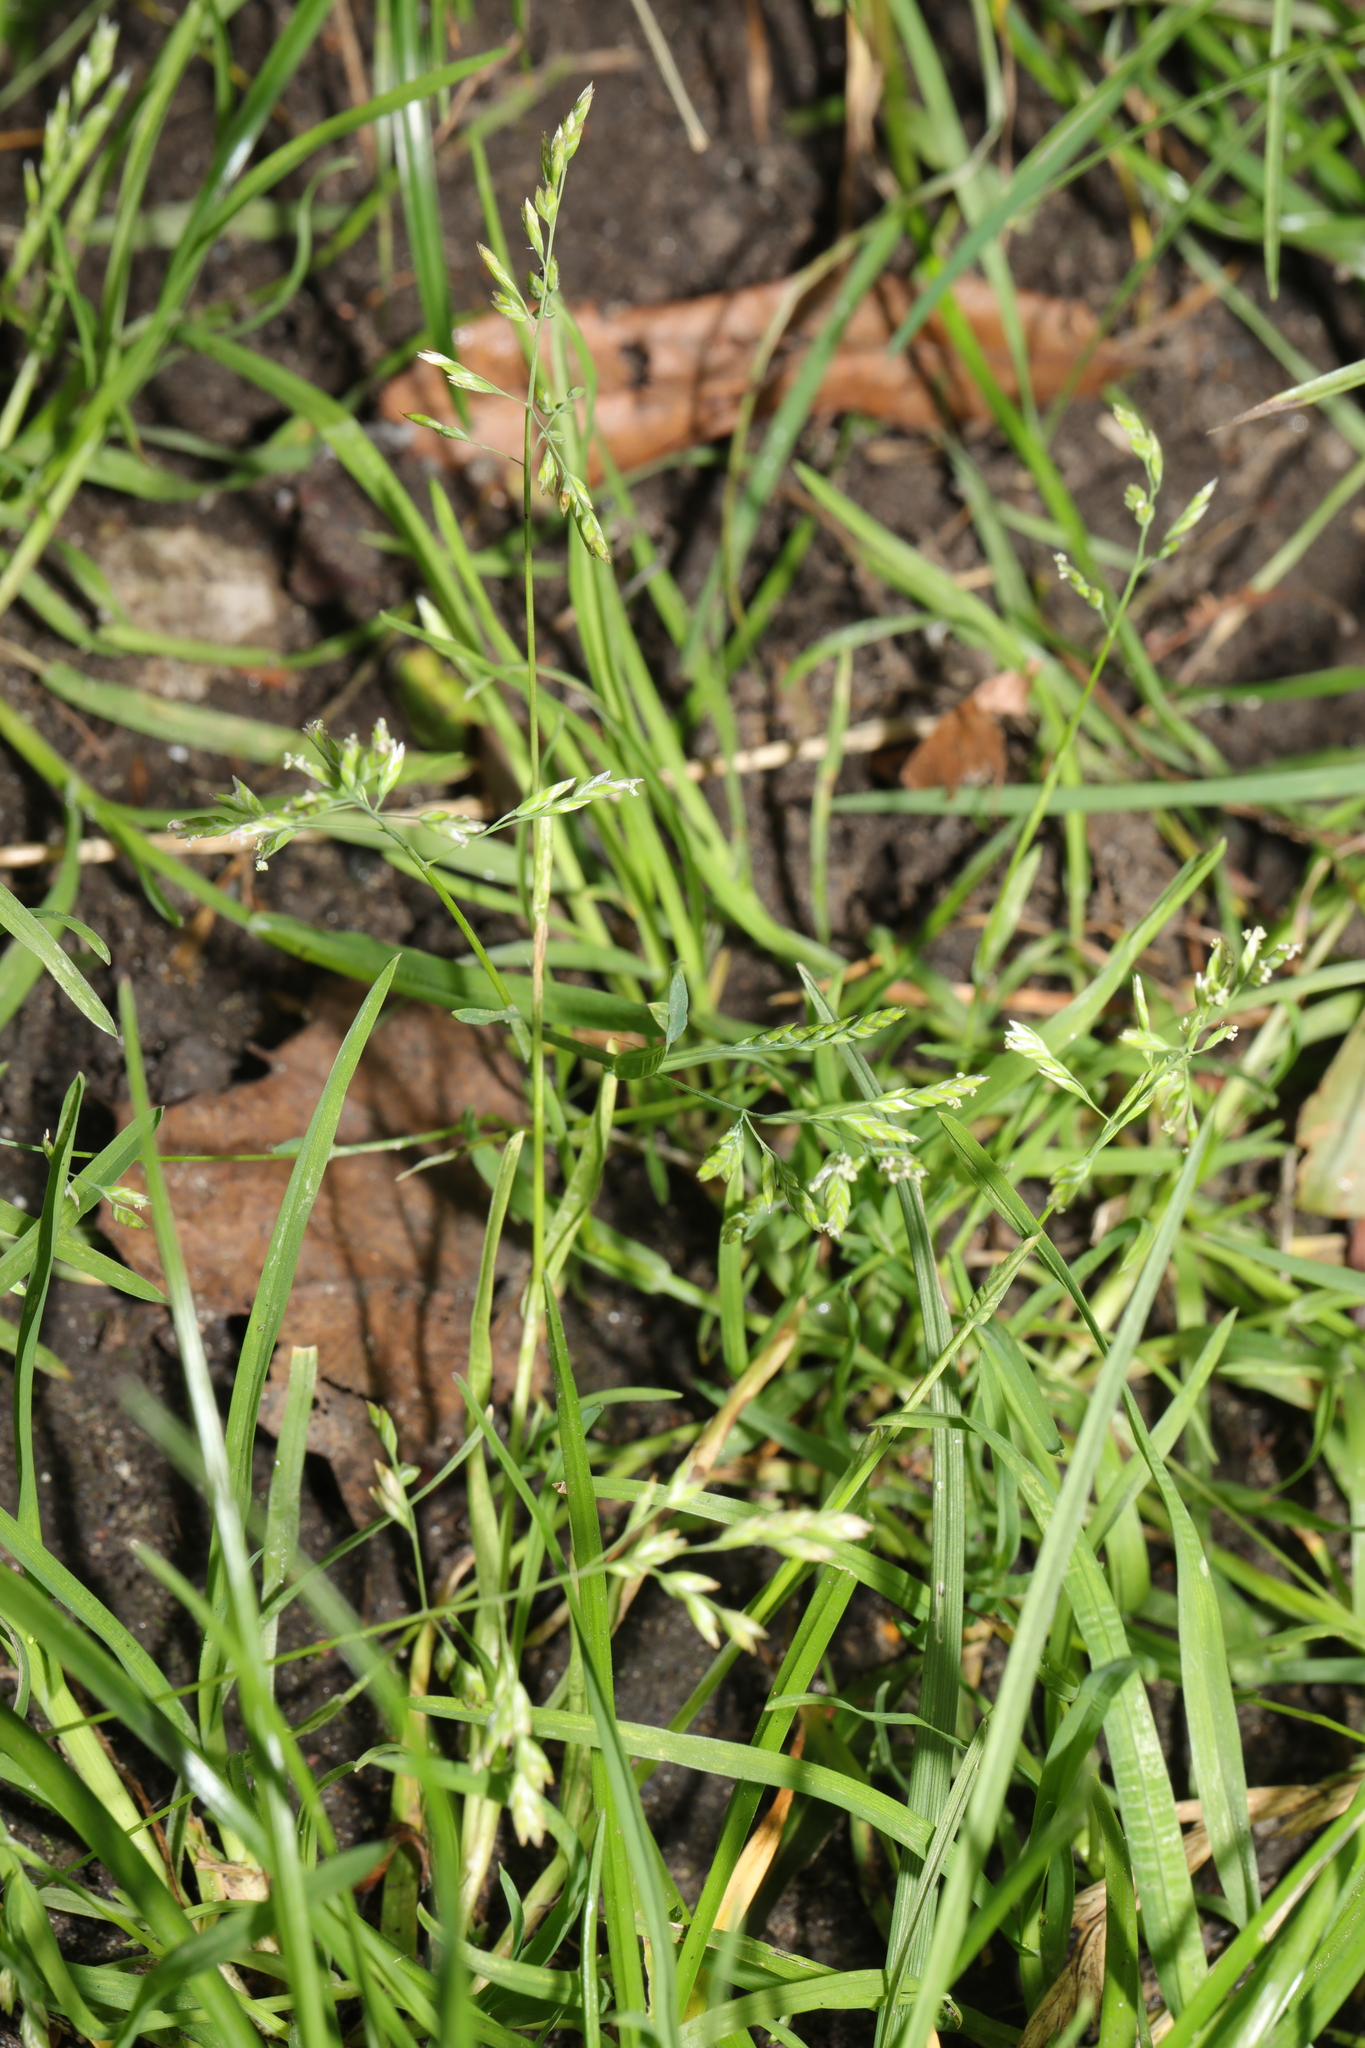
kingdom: Plantae
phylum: Tracheophyta
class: Liliopsida
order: Poales
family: Poaceae
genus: Poa
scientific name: Poa annua
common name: Annual bluegrass
